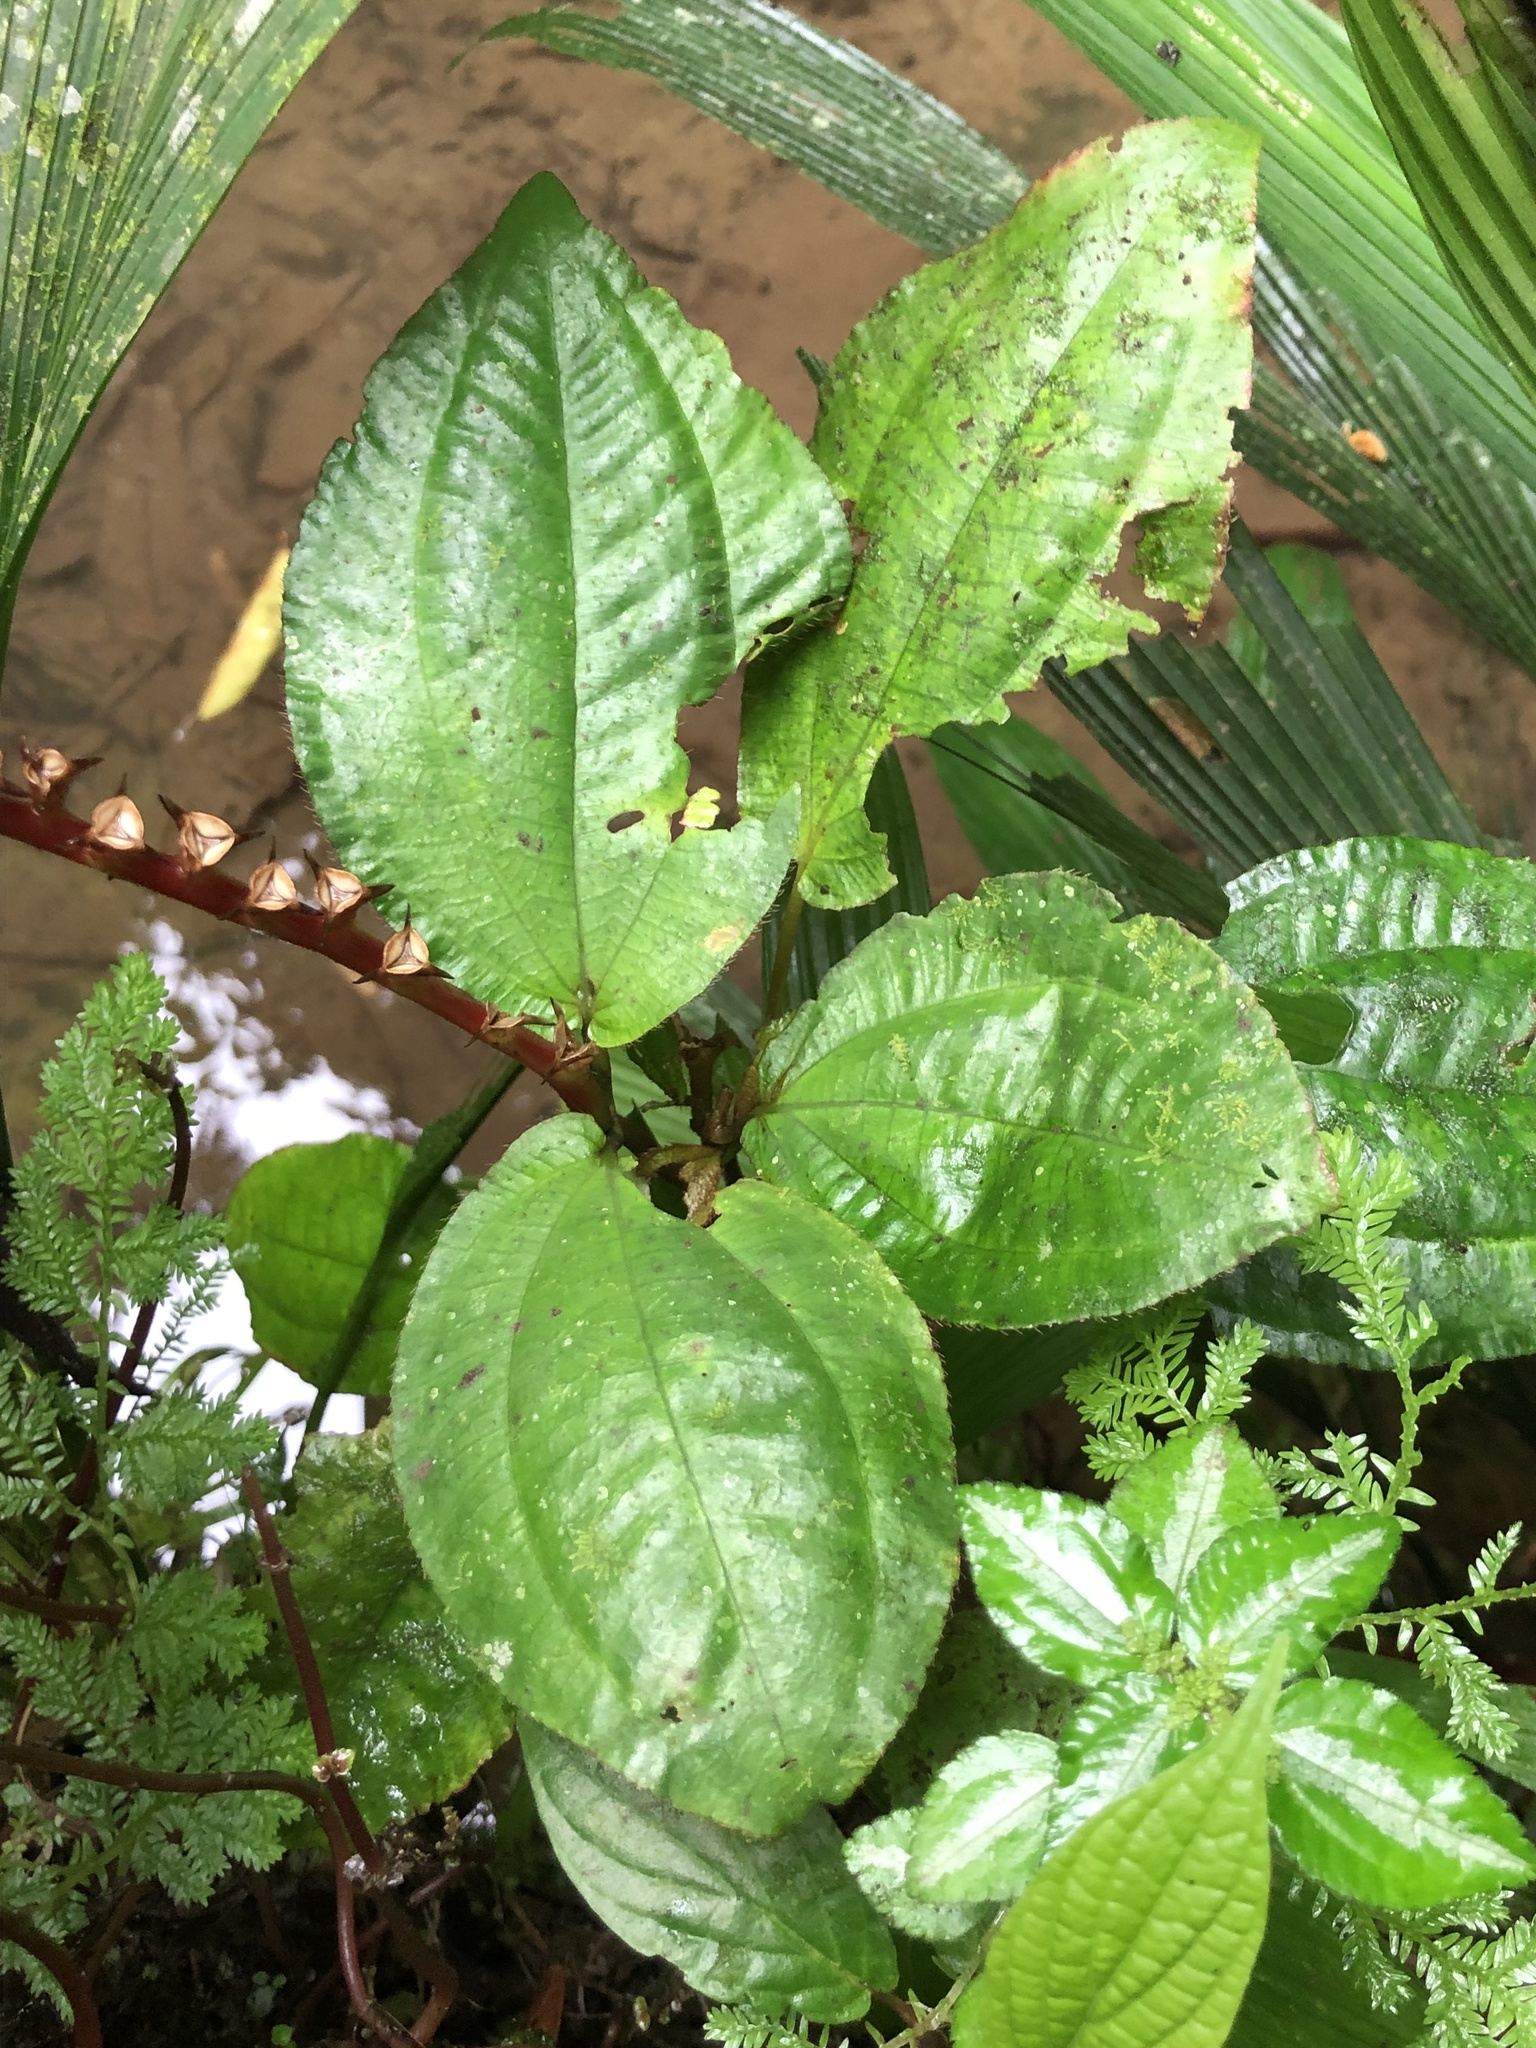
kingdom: Plantae
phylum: Tracheophyta
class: Magnoliopsida
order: Myrtales
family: Melastomataceae
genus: Monolena
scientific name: Monolena primuliflora
